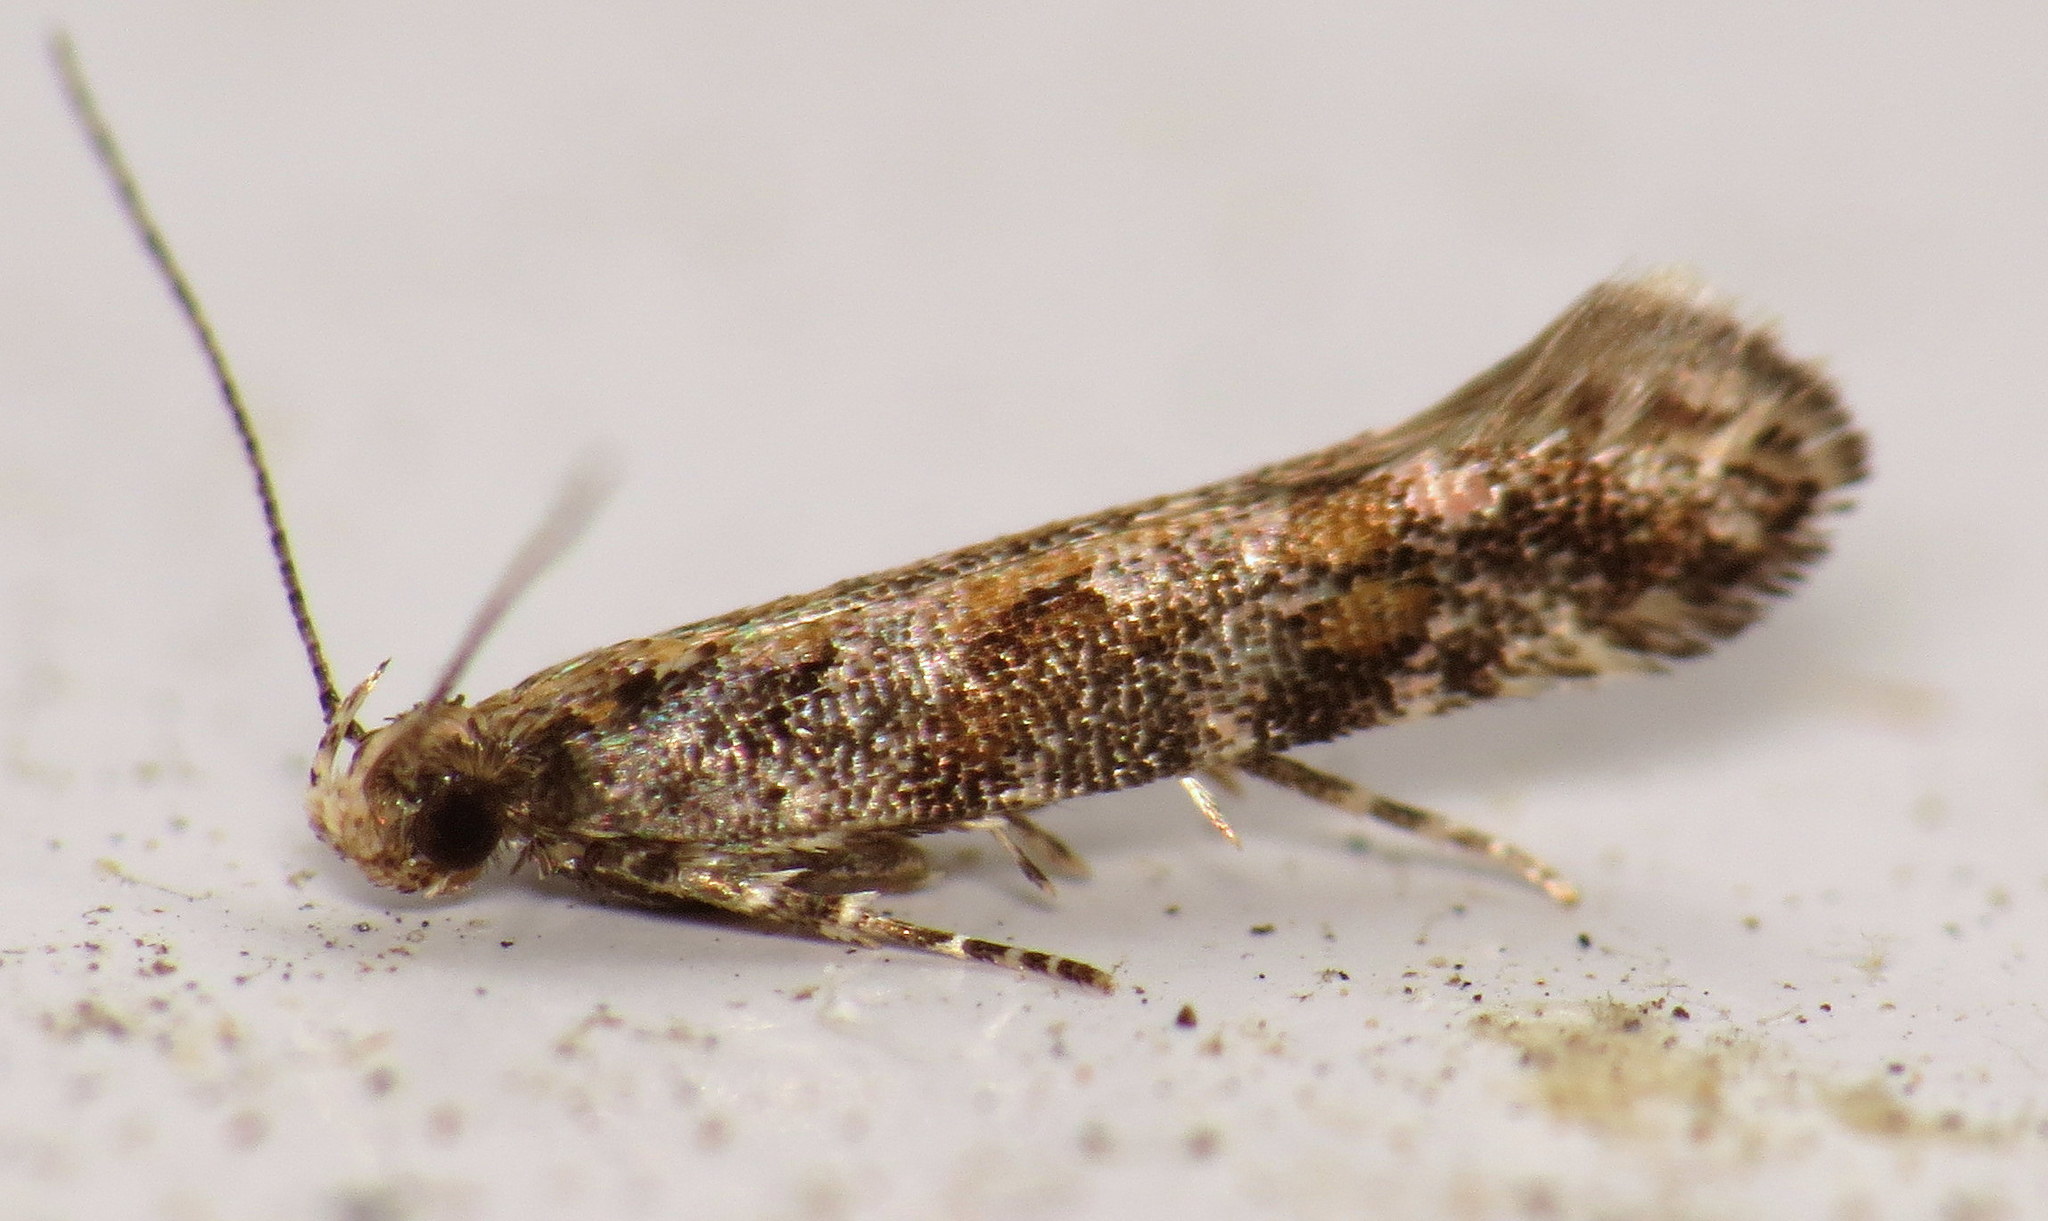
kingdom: Animalia
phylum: Arthropoda
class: Insecta
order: Lepidoptera
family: Gelechiidae
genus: Aristotelia
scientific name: Aristotelia rubidella
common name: Ruby aristotelia moth
